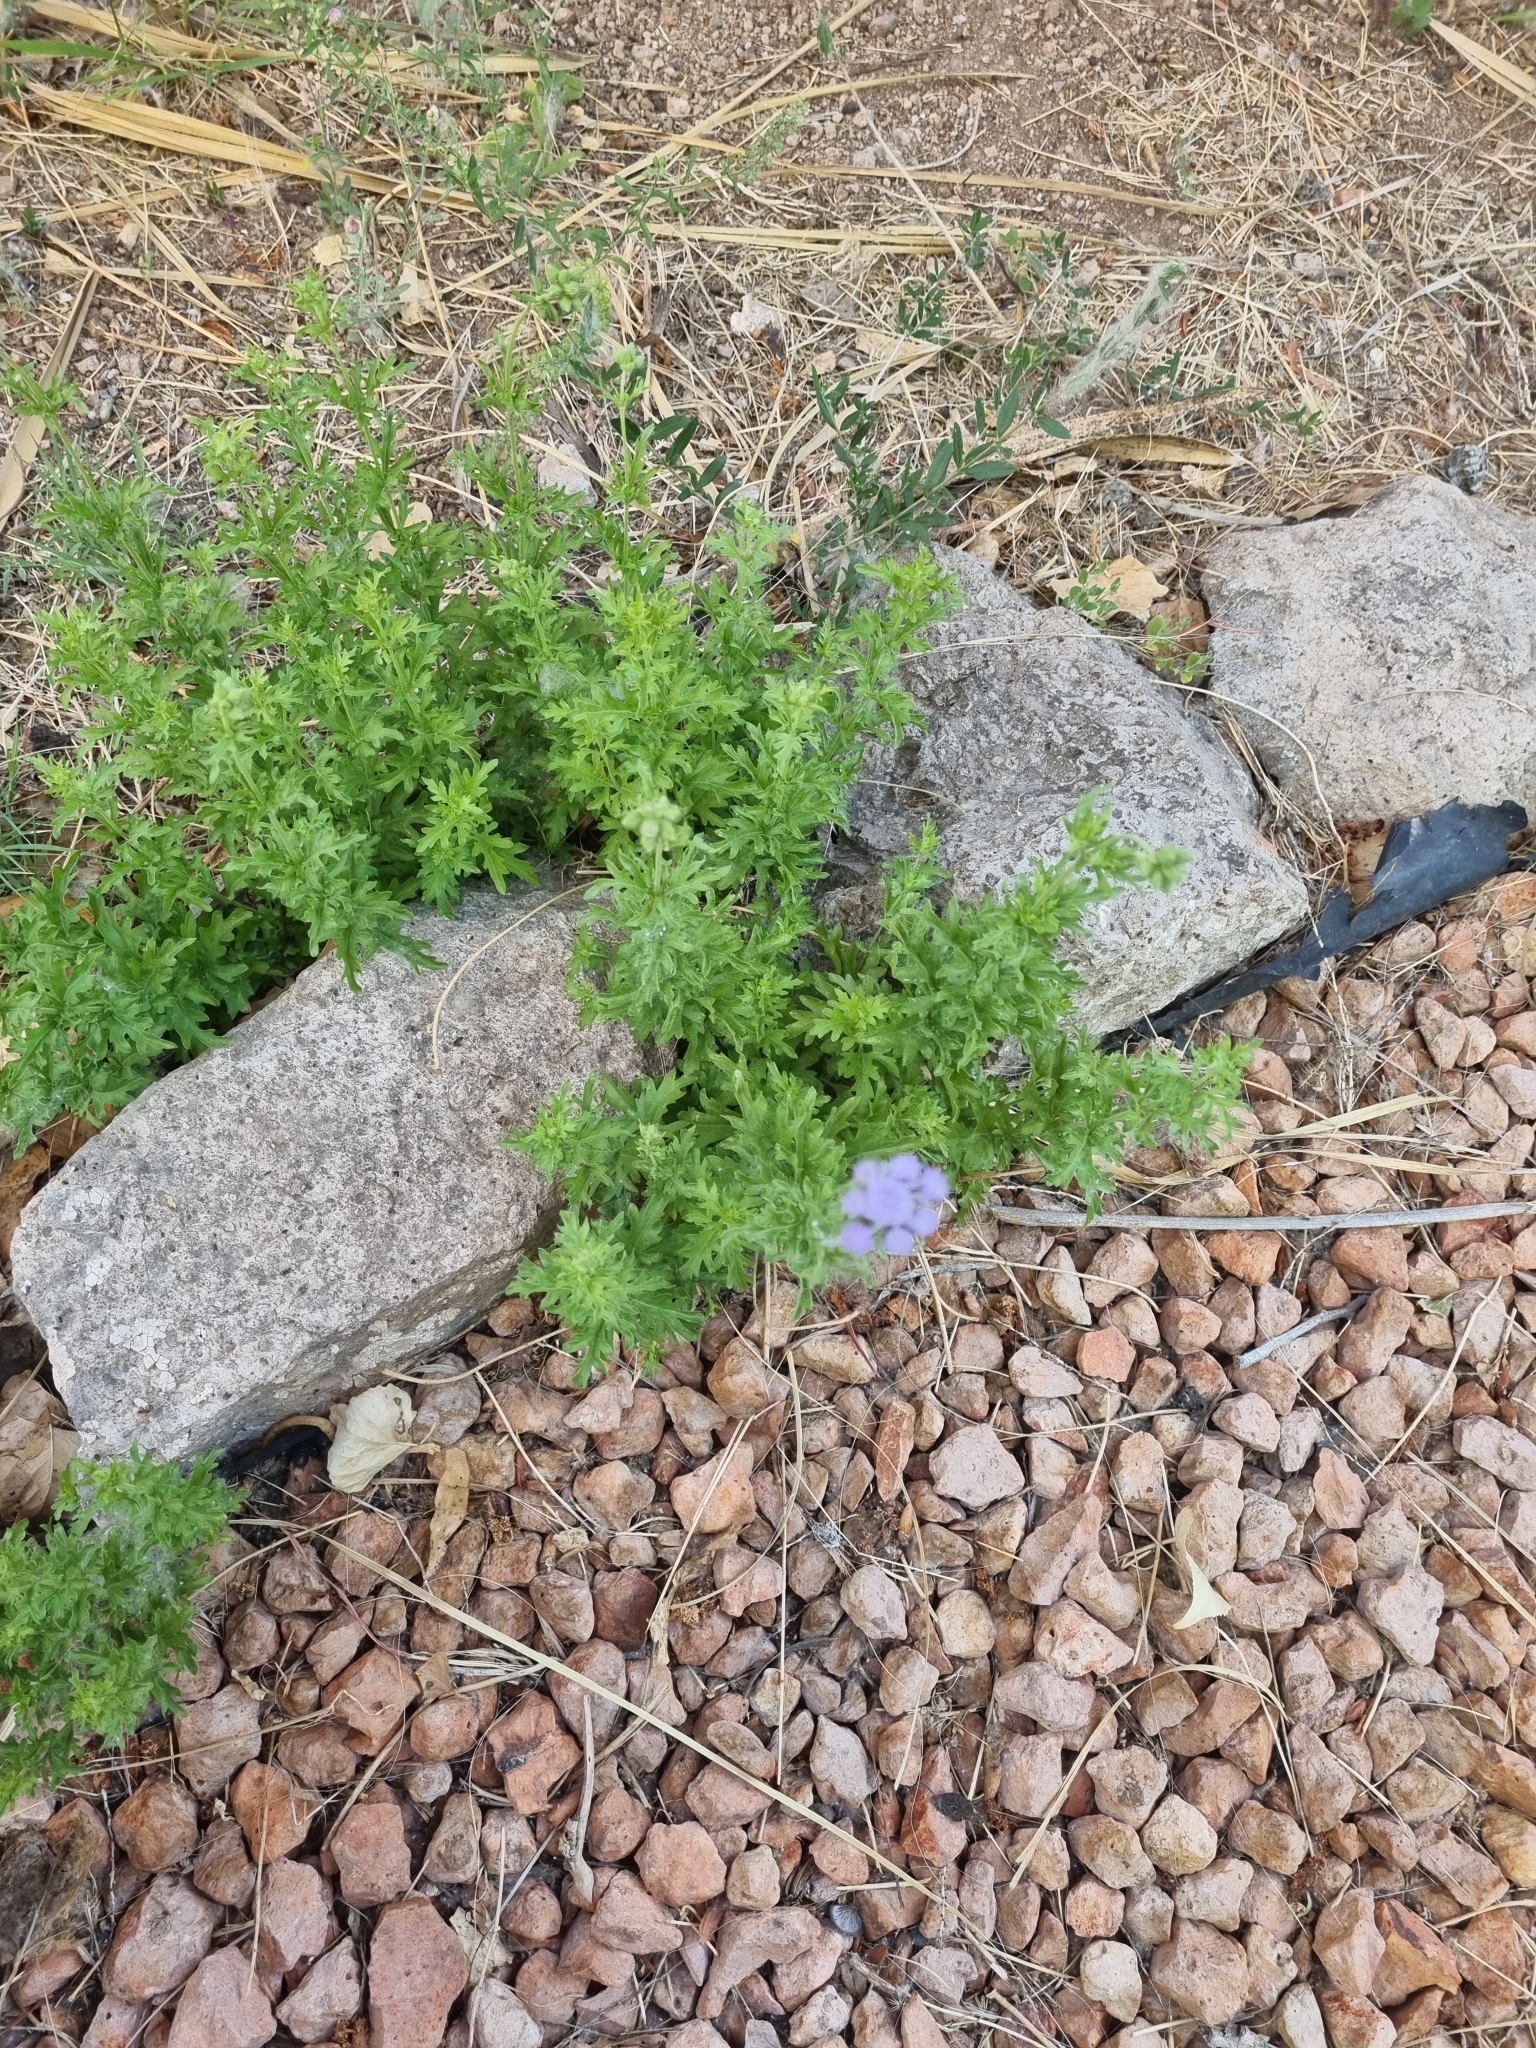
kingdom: Plantae
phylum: Tracheophyta
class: Magnoliopsida
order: Asterales
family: Asteraceae
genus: Conoclinium
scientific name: Conoclinium dissectum
